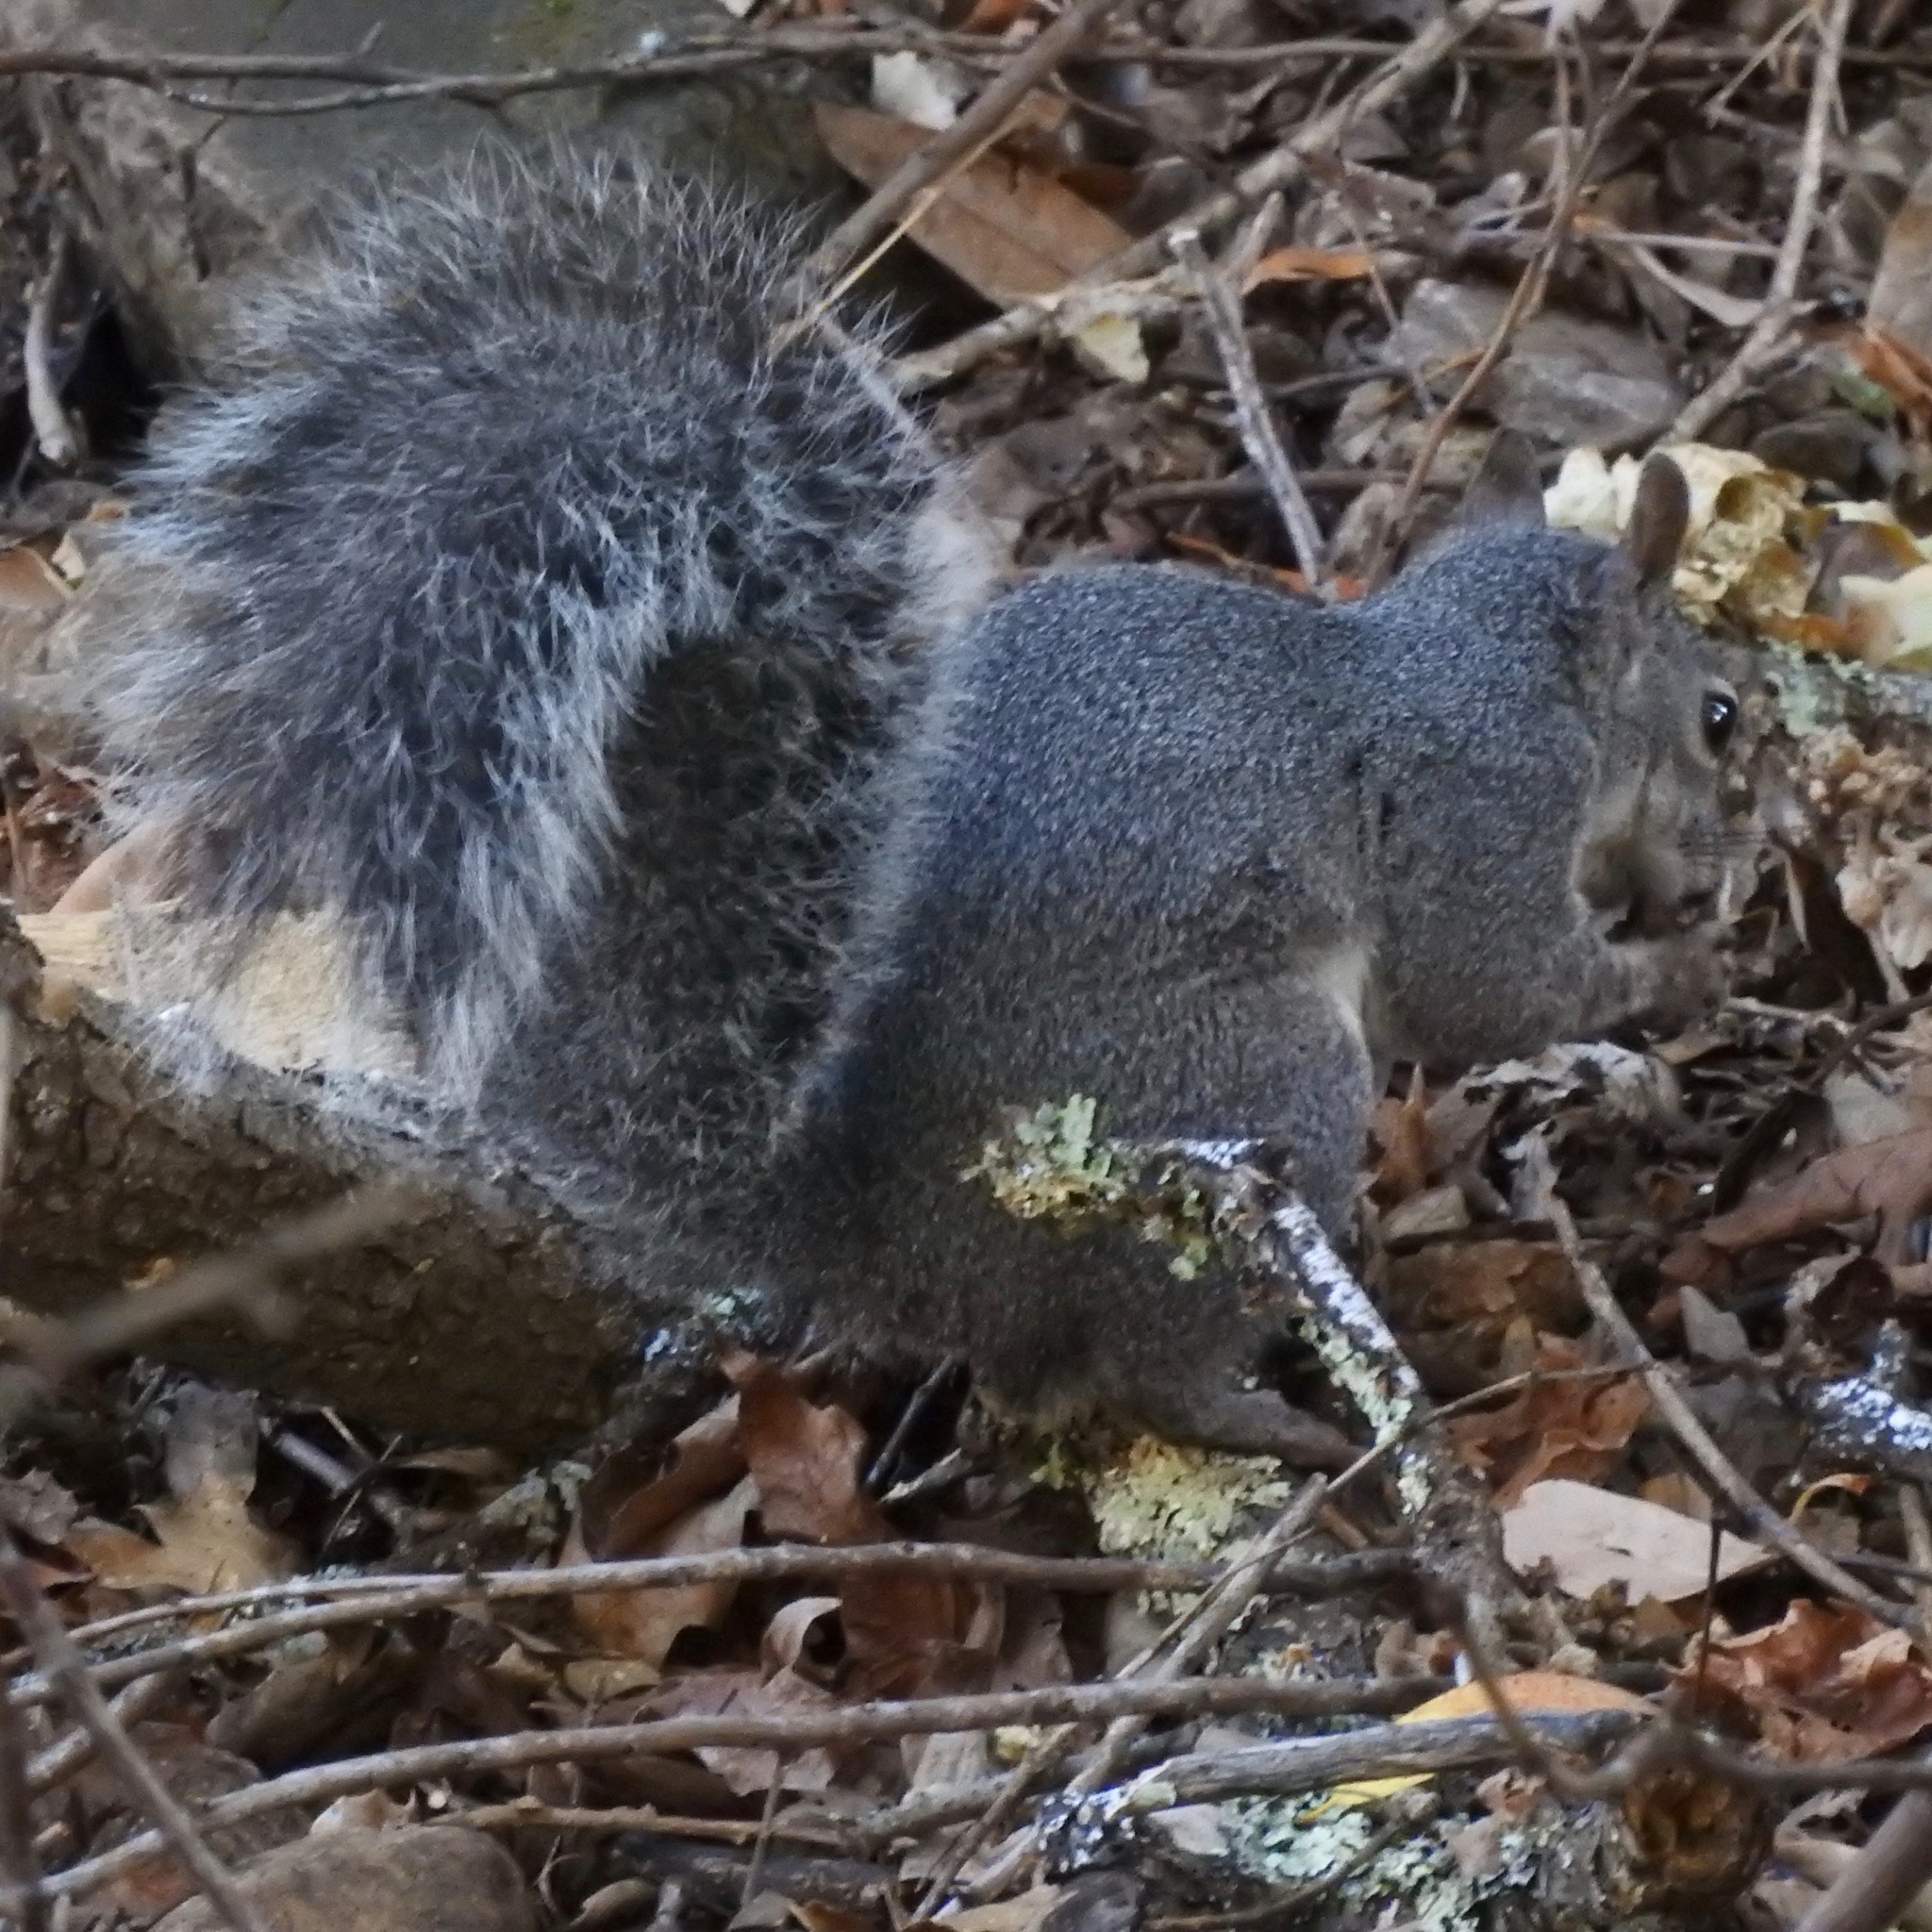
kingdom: Animalia
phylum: Chordata
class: Mammalia
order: Rodentia
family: Sciuridae
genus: Sciurus
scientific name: Sciurus griseus
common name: Western gray squirrel
